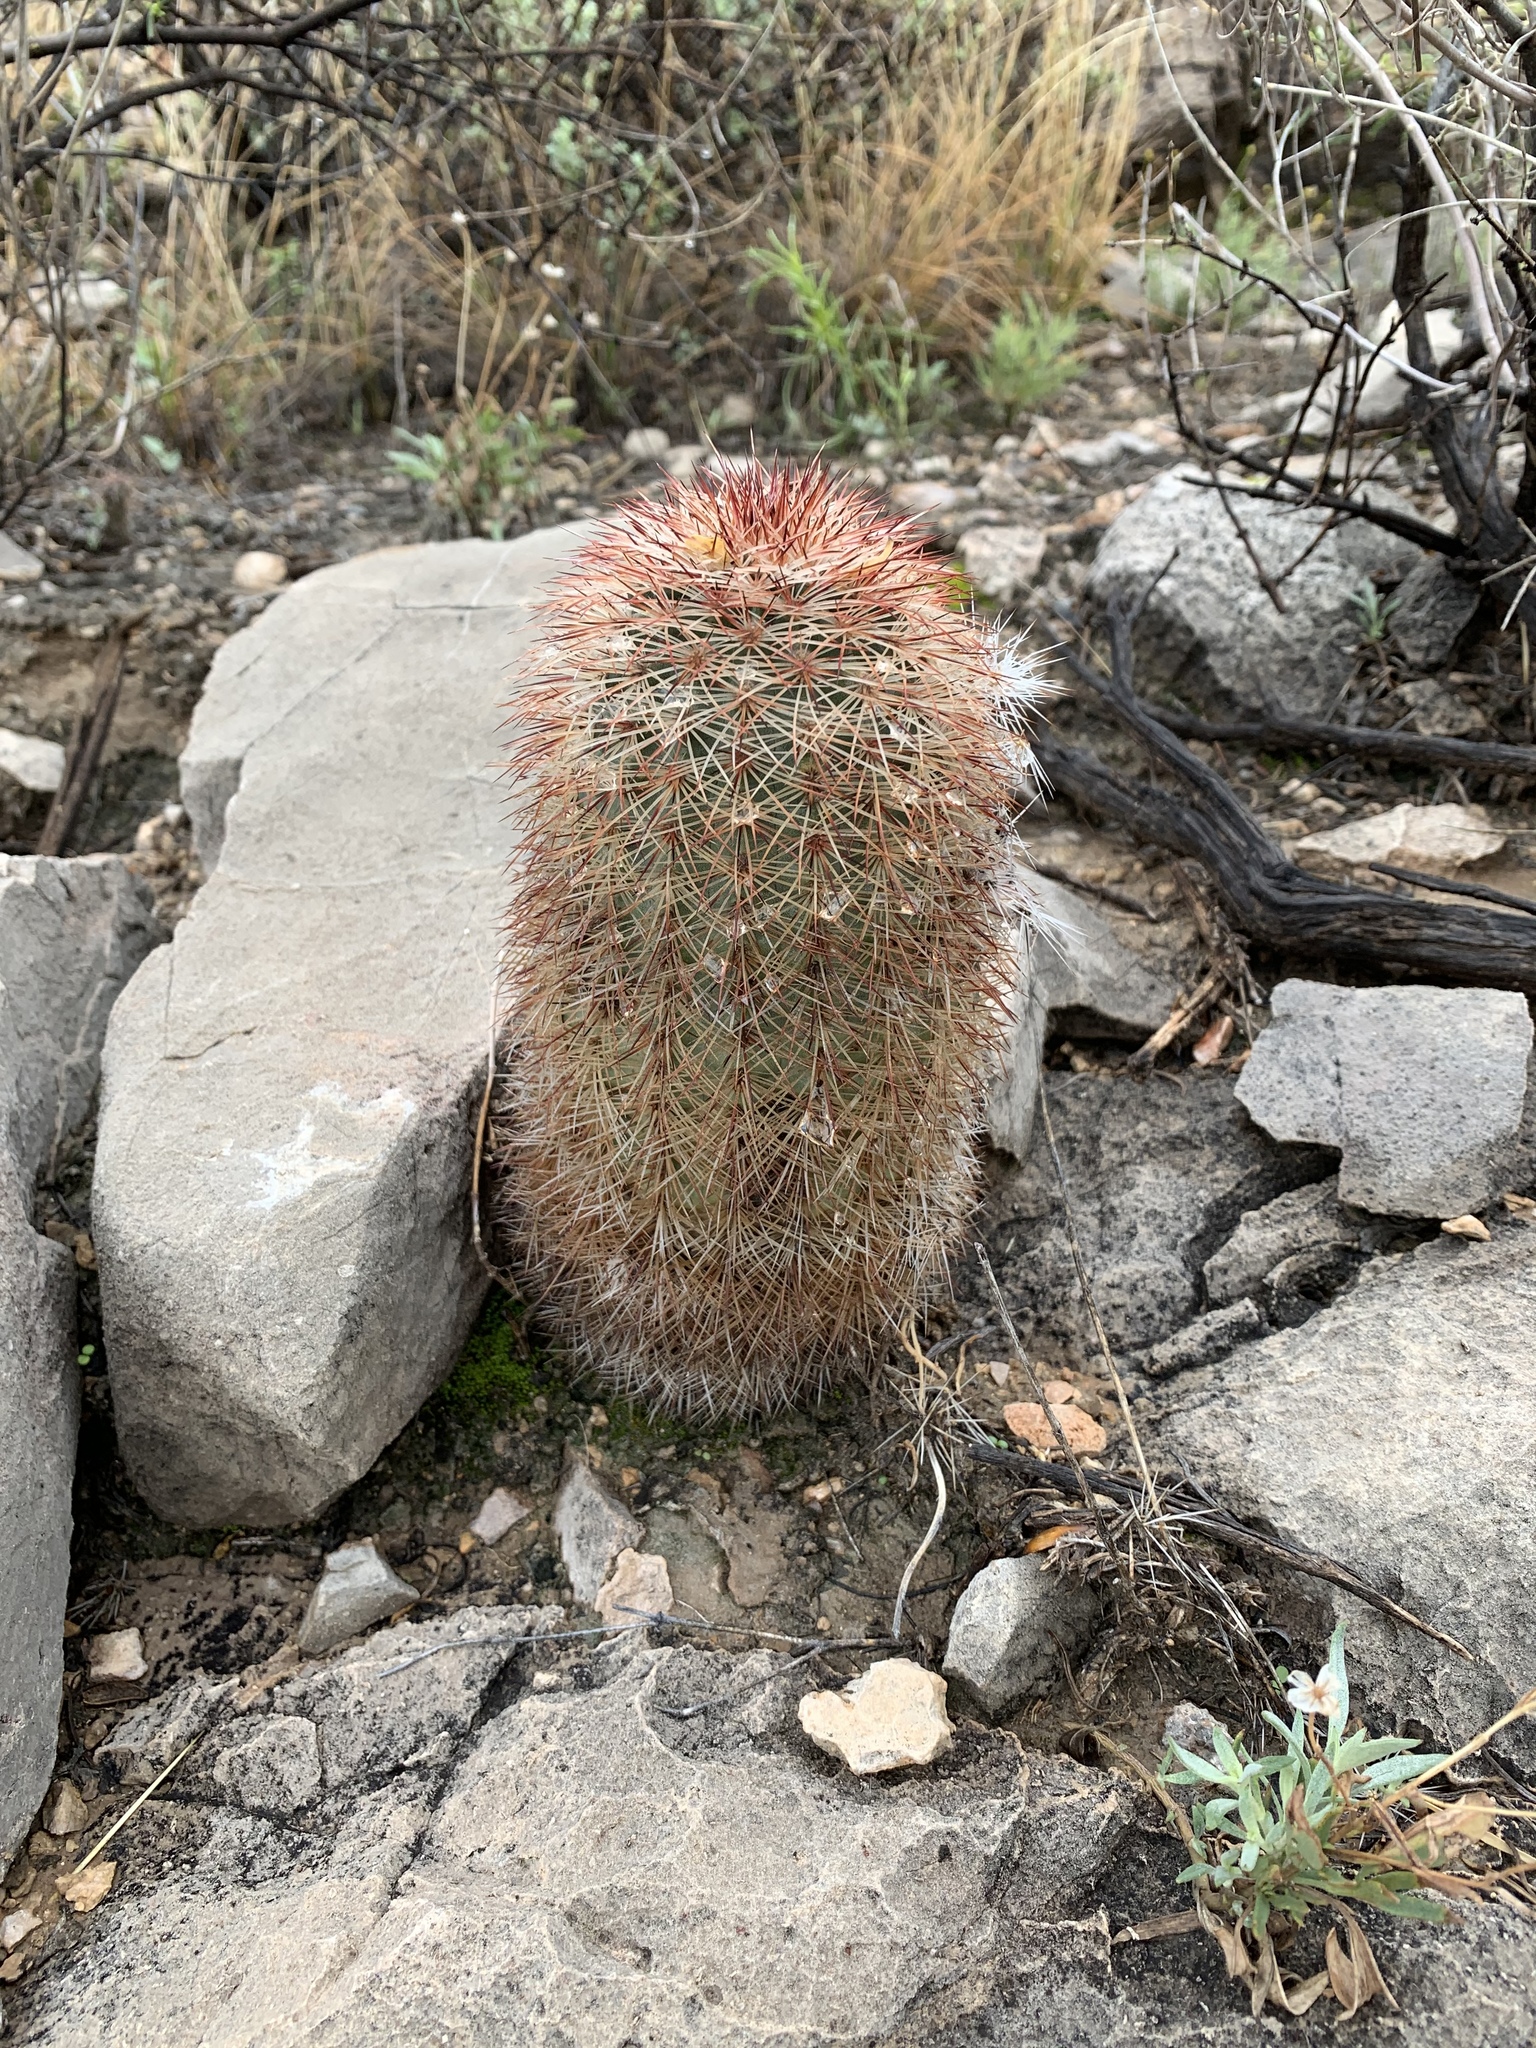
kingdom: Plantae
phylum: Tracheophyta
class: Magnoliopsida
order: Caryophyllales
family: Cactaceae
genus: Echinocereus
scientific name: Echinocereus dasyacanthus
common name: Spiny hedgehog cactus
